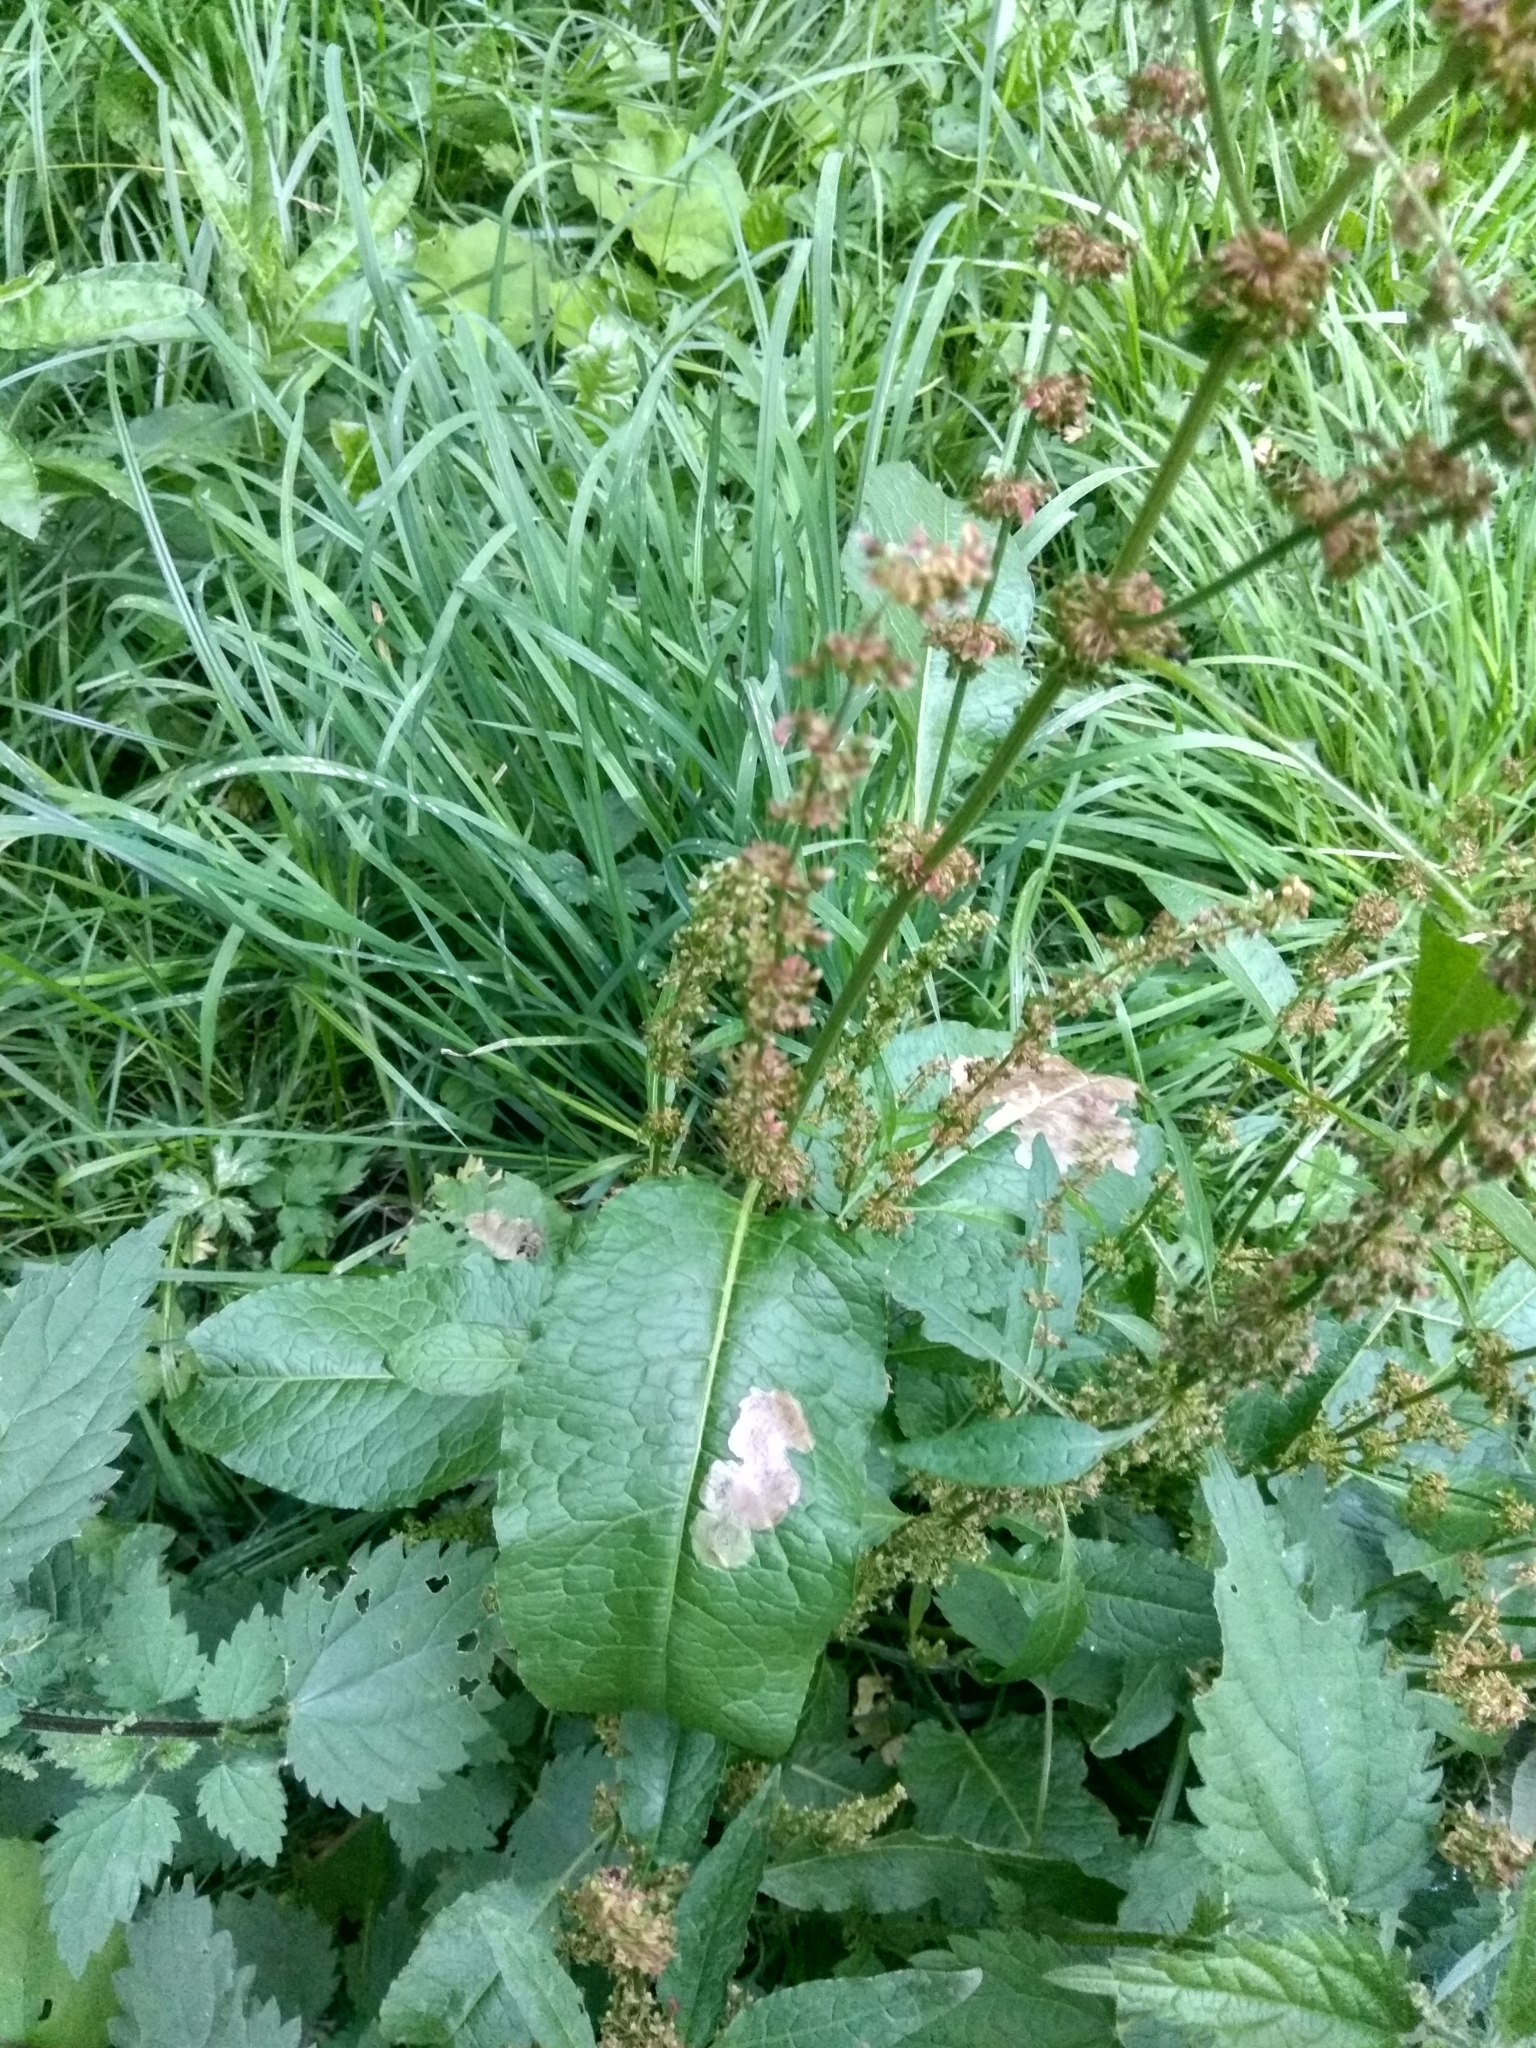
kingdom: Plantae
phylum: Tracheophyta
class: Magnoliopsida
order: Caryophyllales
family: Polygonaceae
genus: Rumex
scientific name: Rumex obtusifolius
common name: Bitter dock
